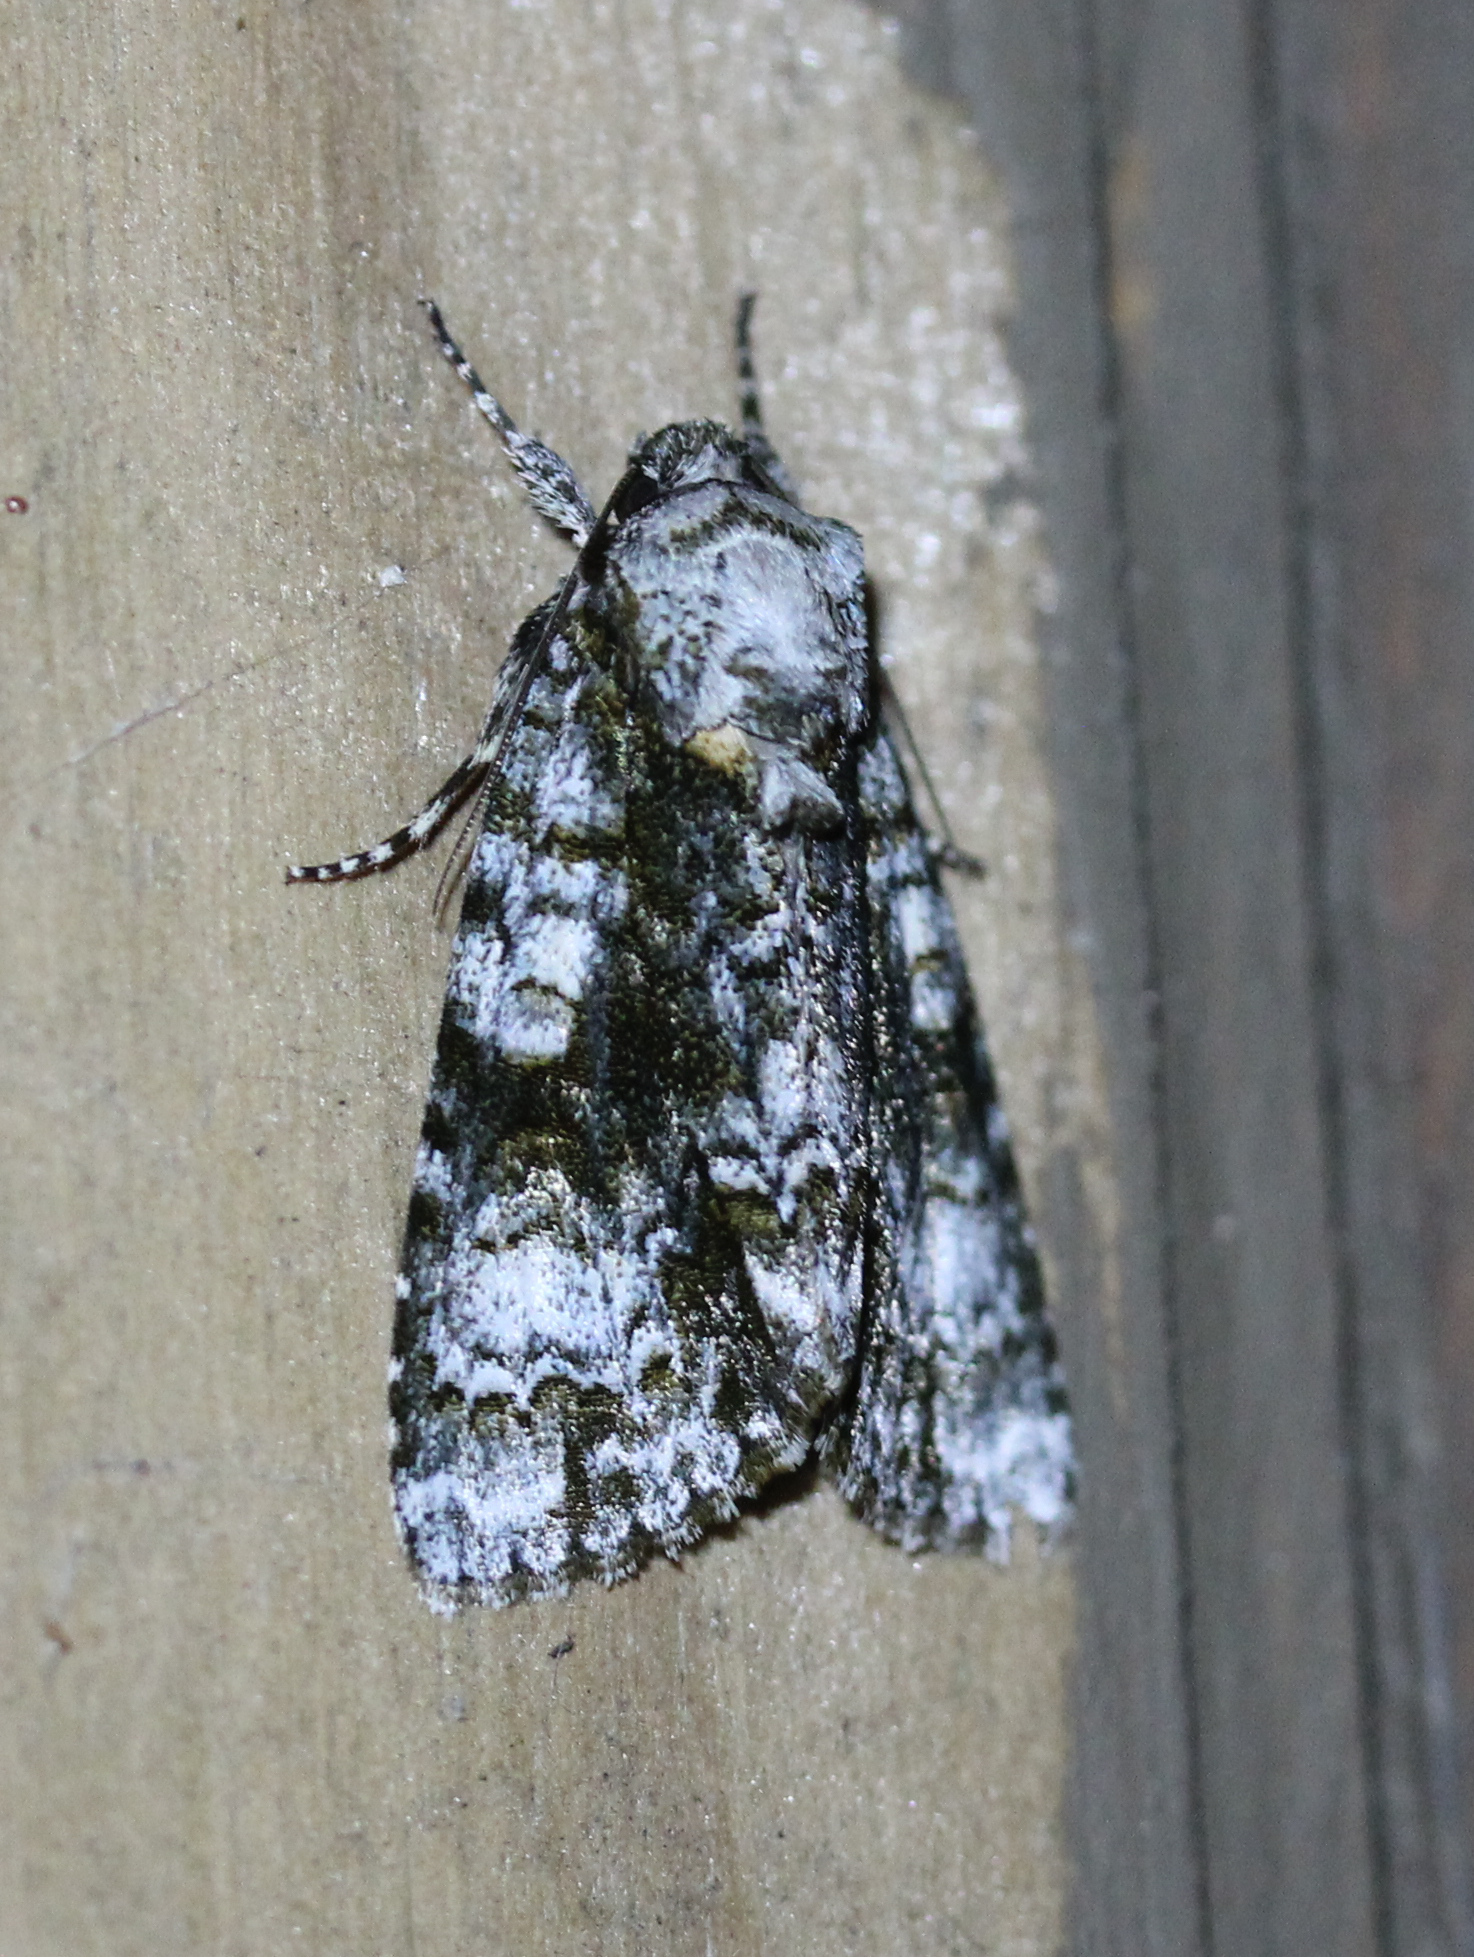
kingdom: Animalia
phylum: Arthropoda
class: Insecta
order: Lepidoptera
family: Noctuidae
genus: Acronicta
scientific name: Acronicta superans
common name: Splendid dagger
